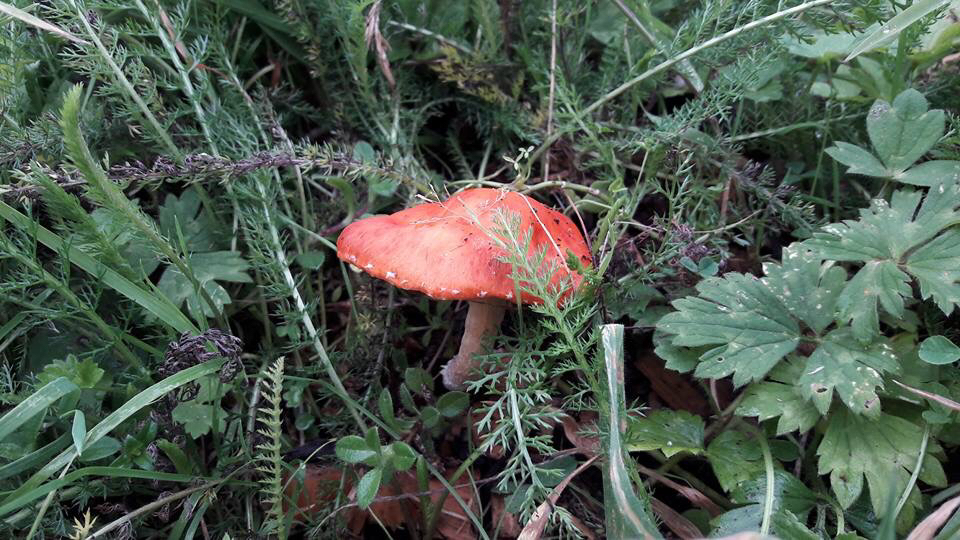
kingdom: Fungi
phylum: Basidiomycota
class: Agaricomycetes
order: Agaricales
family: Strophariaceae
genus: Leratiomyces
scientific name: Leratiomyces ceres
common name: Redlead roundhead
